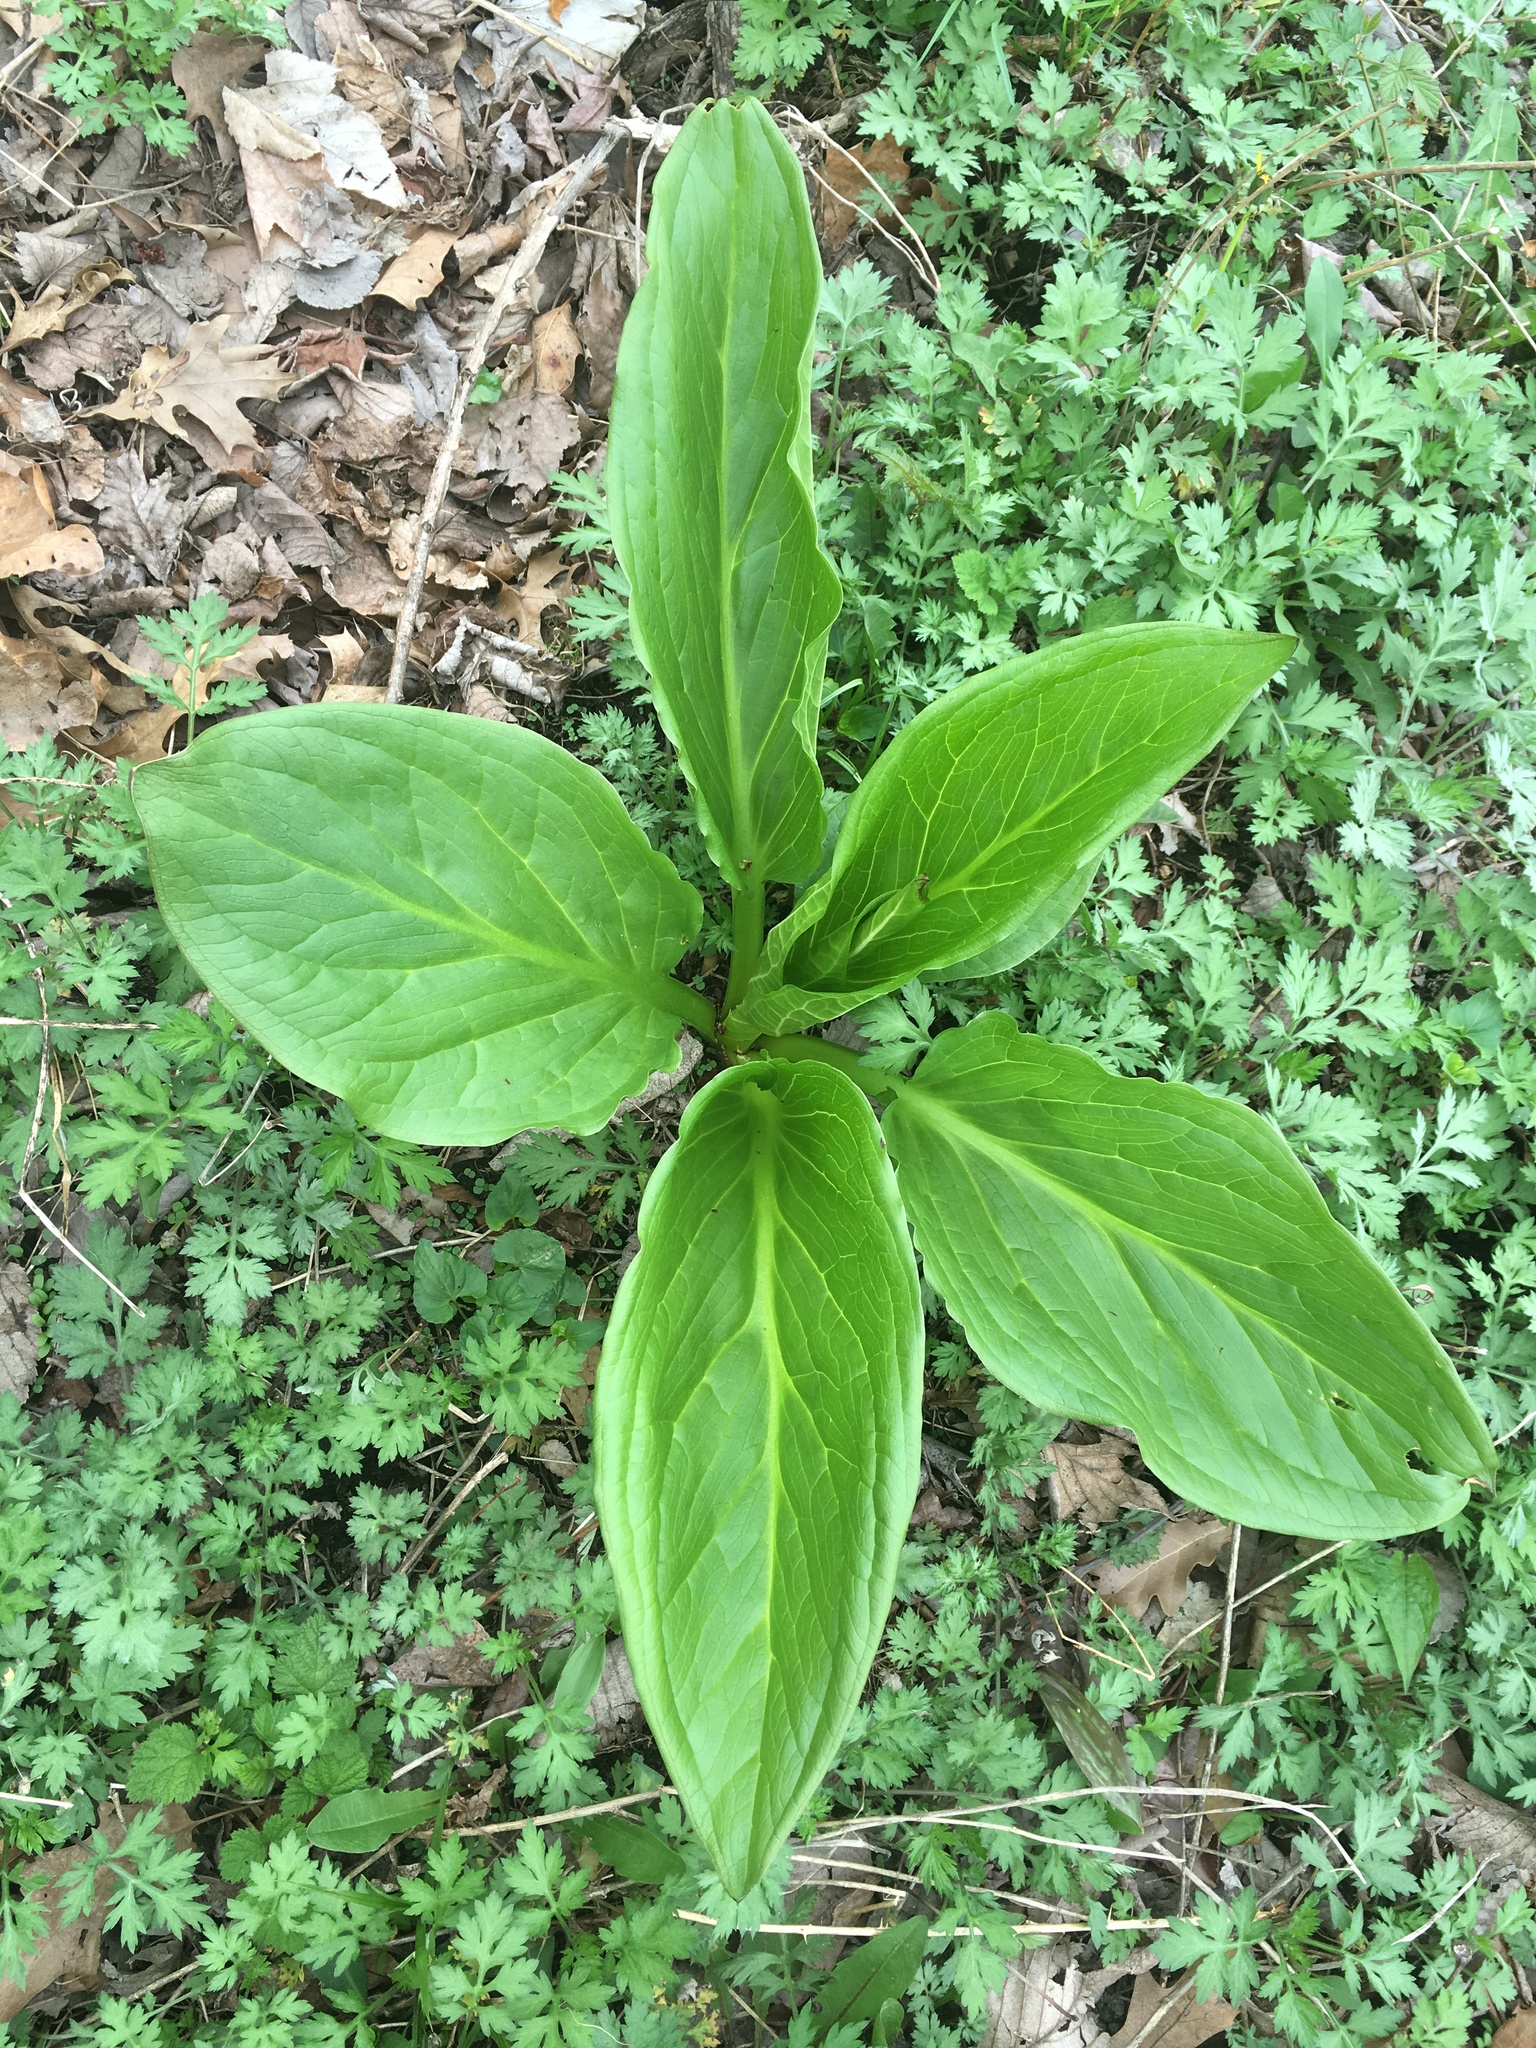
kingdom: Plantae
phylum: Tracheophyta
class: Liliopsida
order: Alismatales
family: Araceae
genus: Symplocarpus
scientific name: Symplocarpus foetidus
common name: Eastern skunk cabbage
